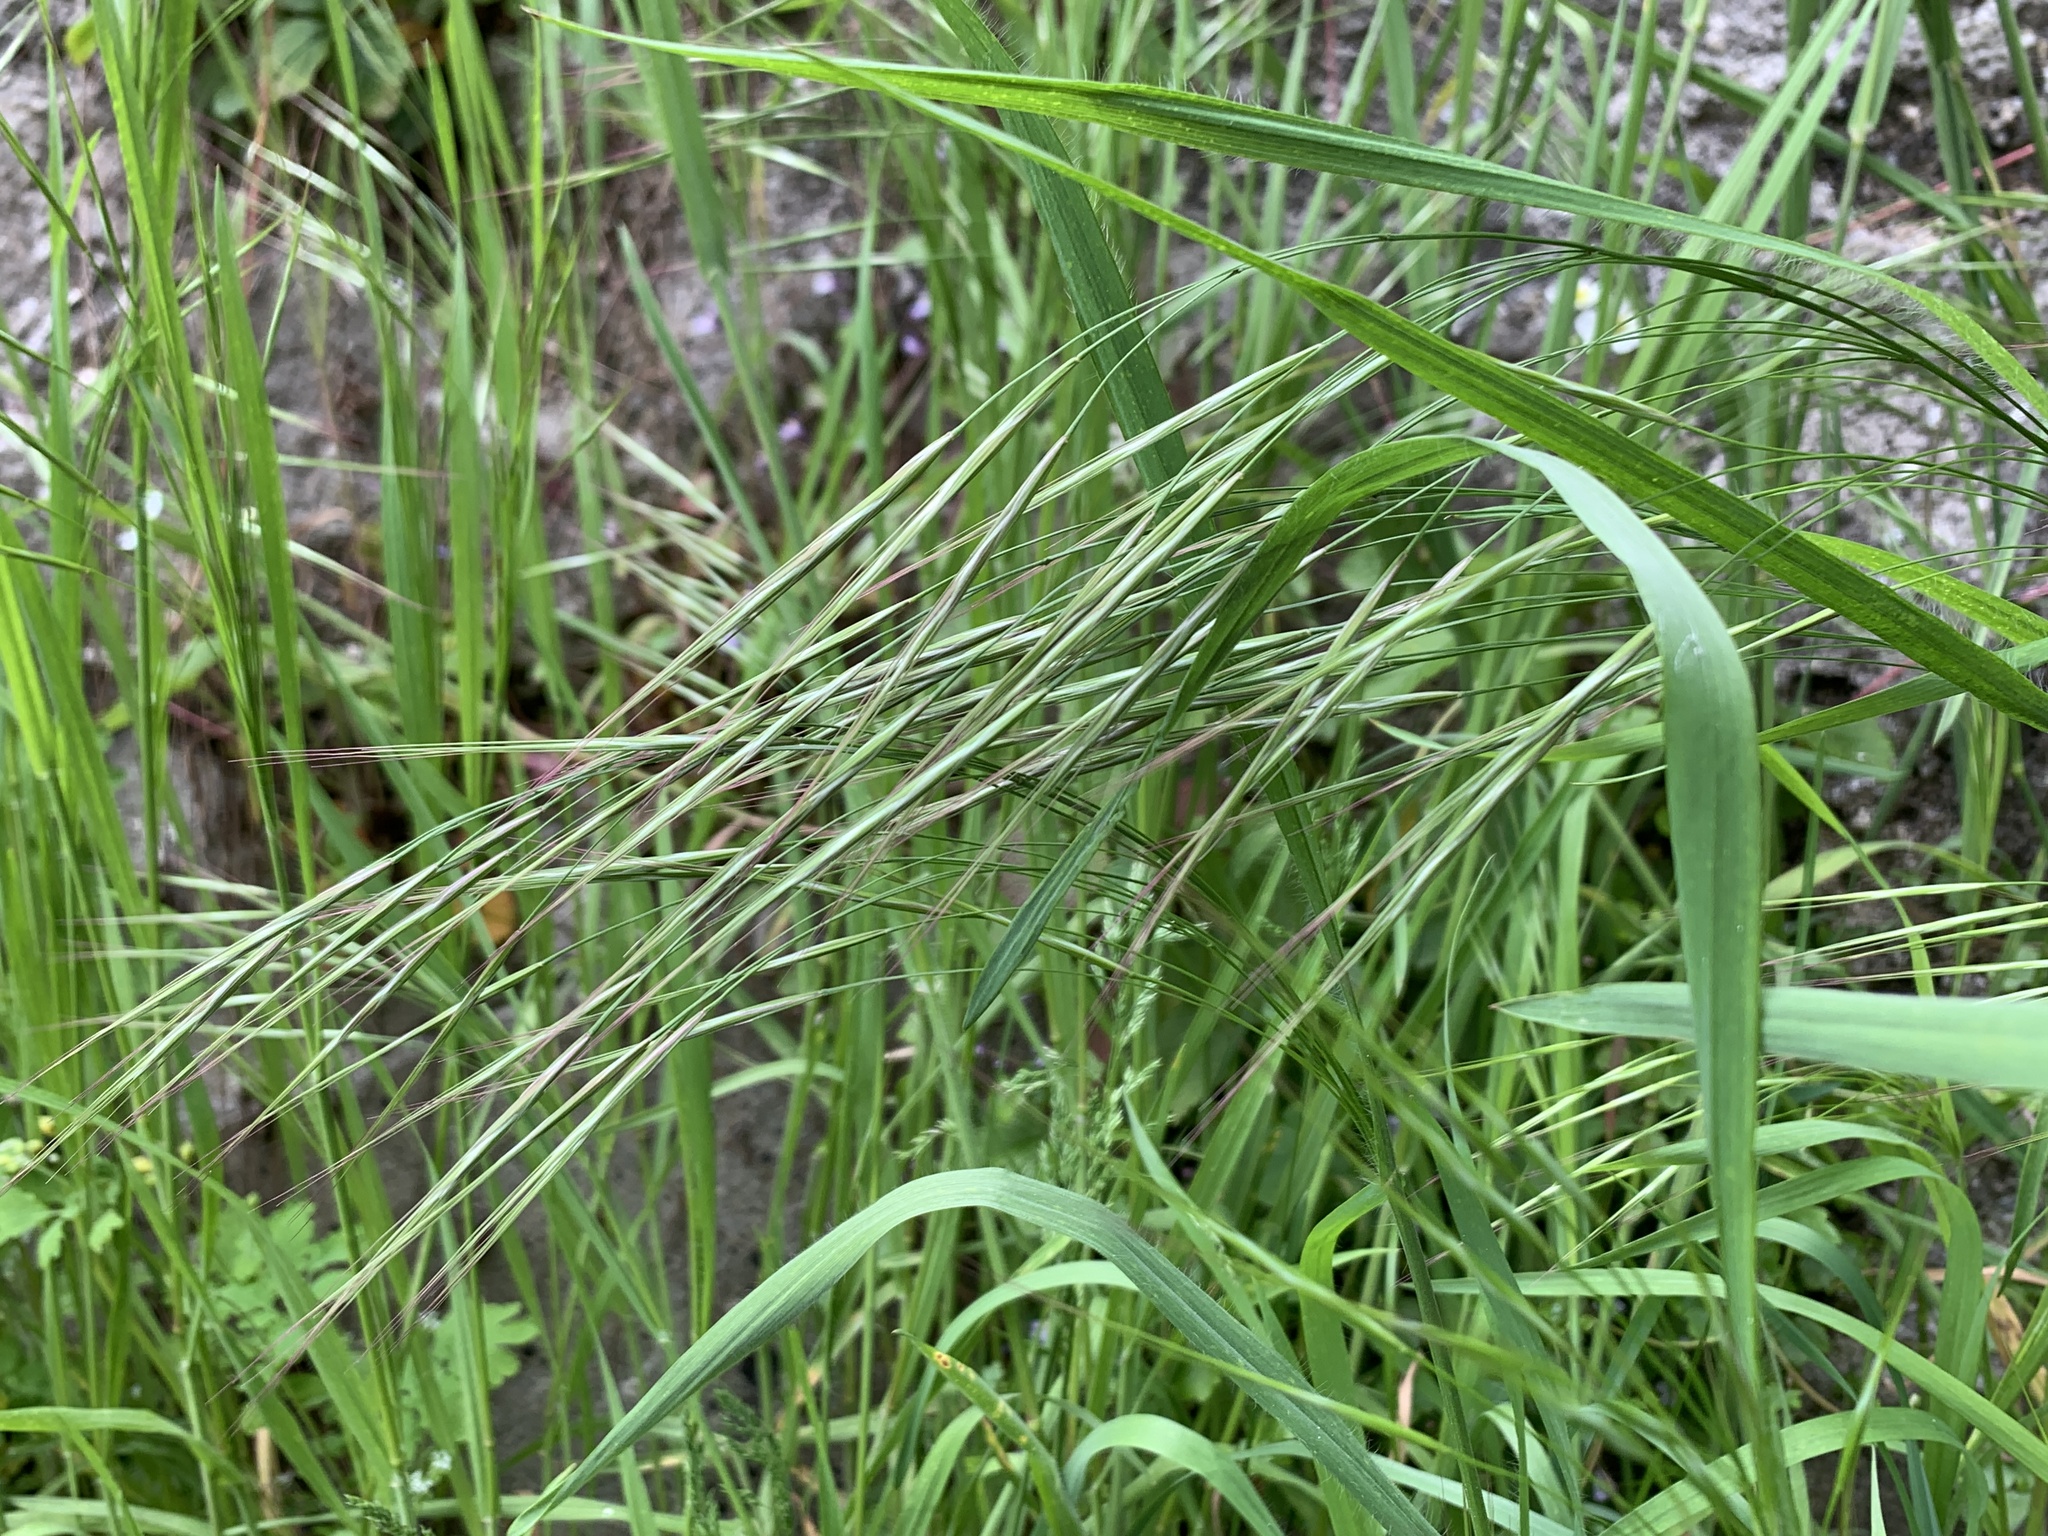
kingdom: Plantae
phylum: Tracheophyta
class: Liliopsida
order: Poales
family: Poaceae
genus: Bromus
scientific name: Bromus sterilis
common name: Poverty brome
